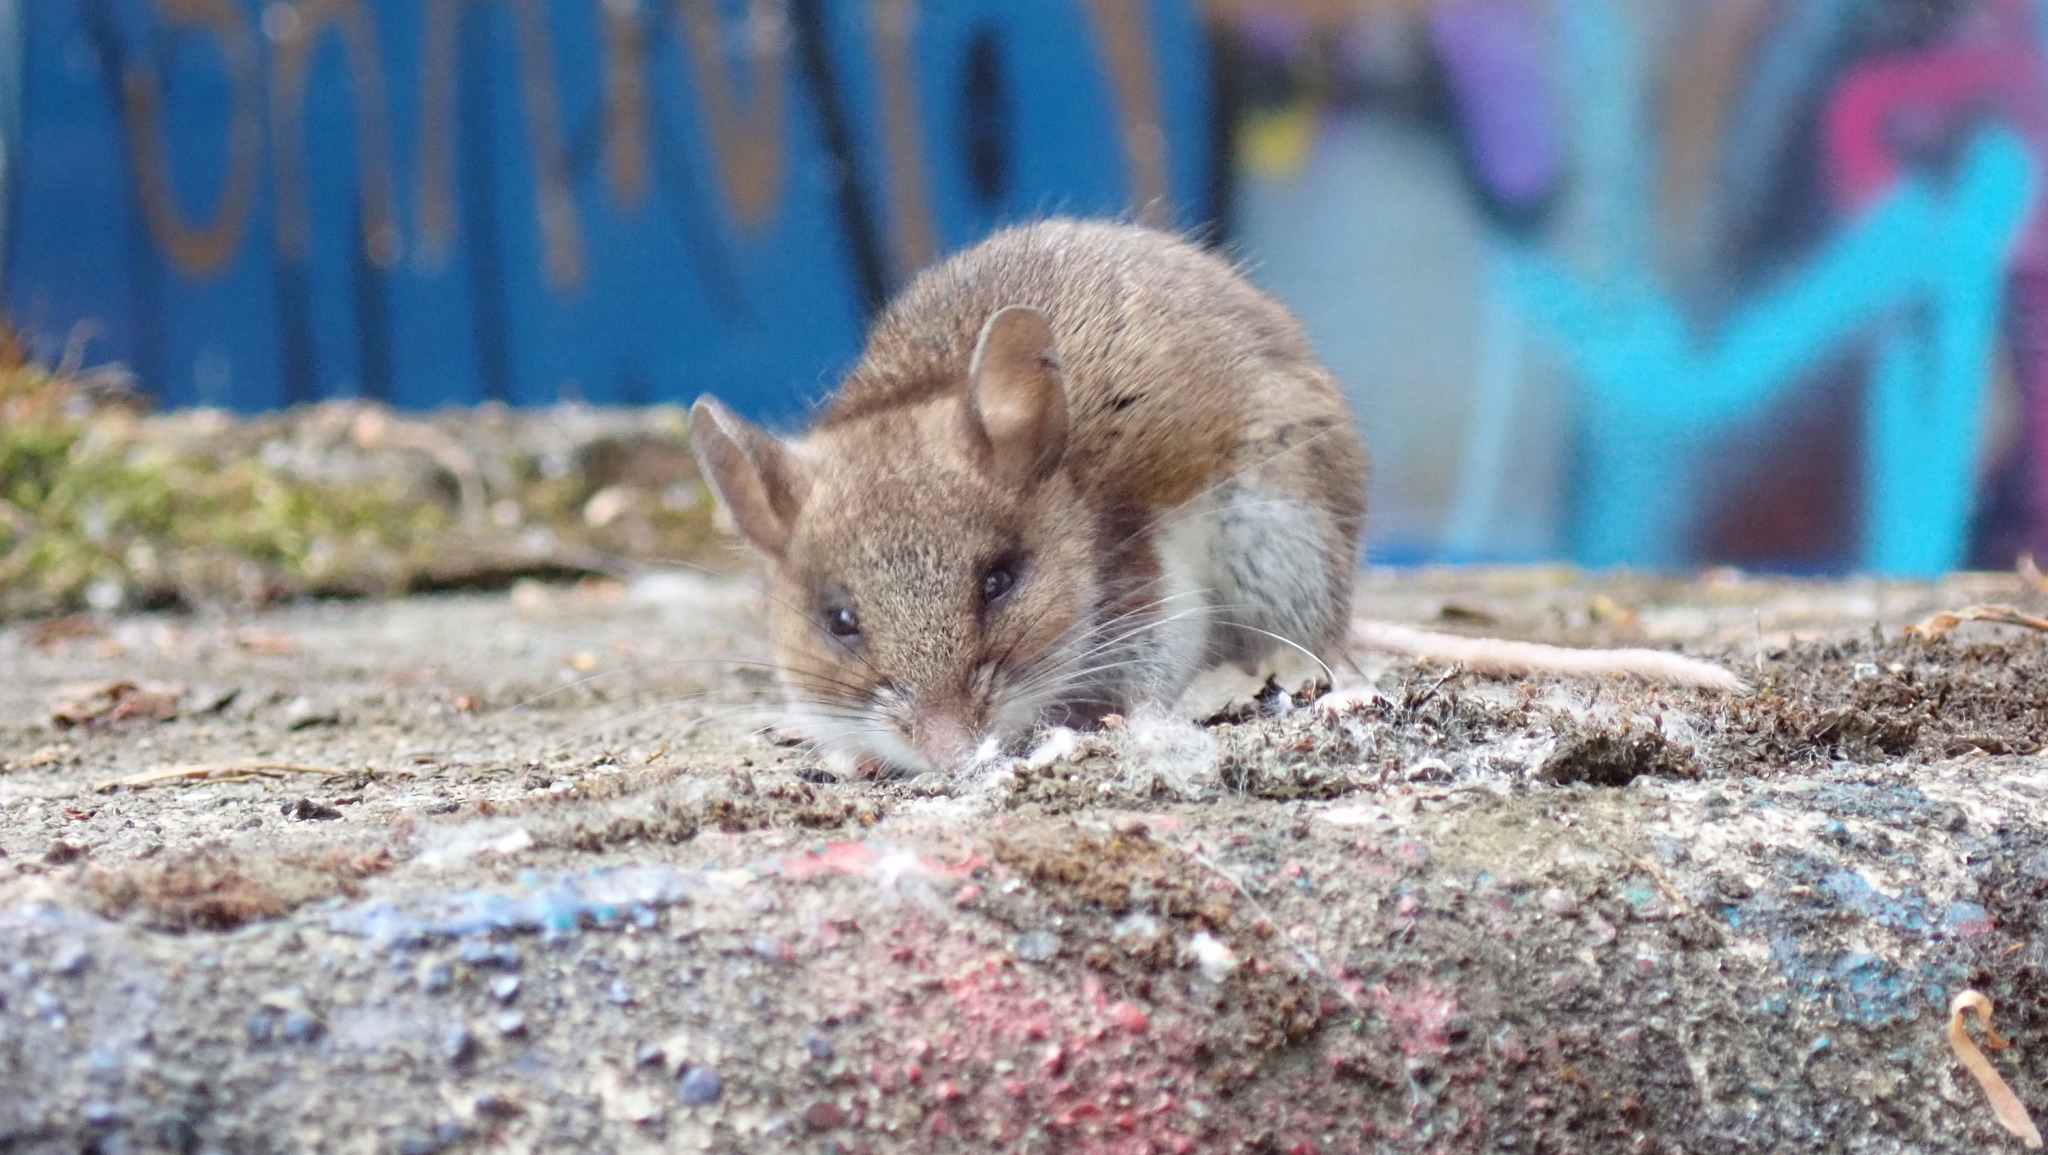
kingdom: Animalia
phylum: Chordata
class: Mammalia
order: Rodentia
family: Cricetidae
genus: Peromyscus
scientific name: Peromyscus maniculatus
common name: Deer mouse
